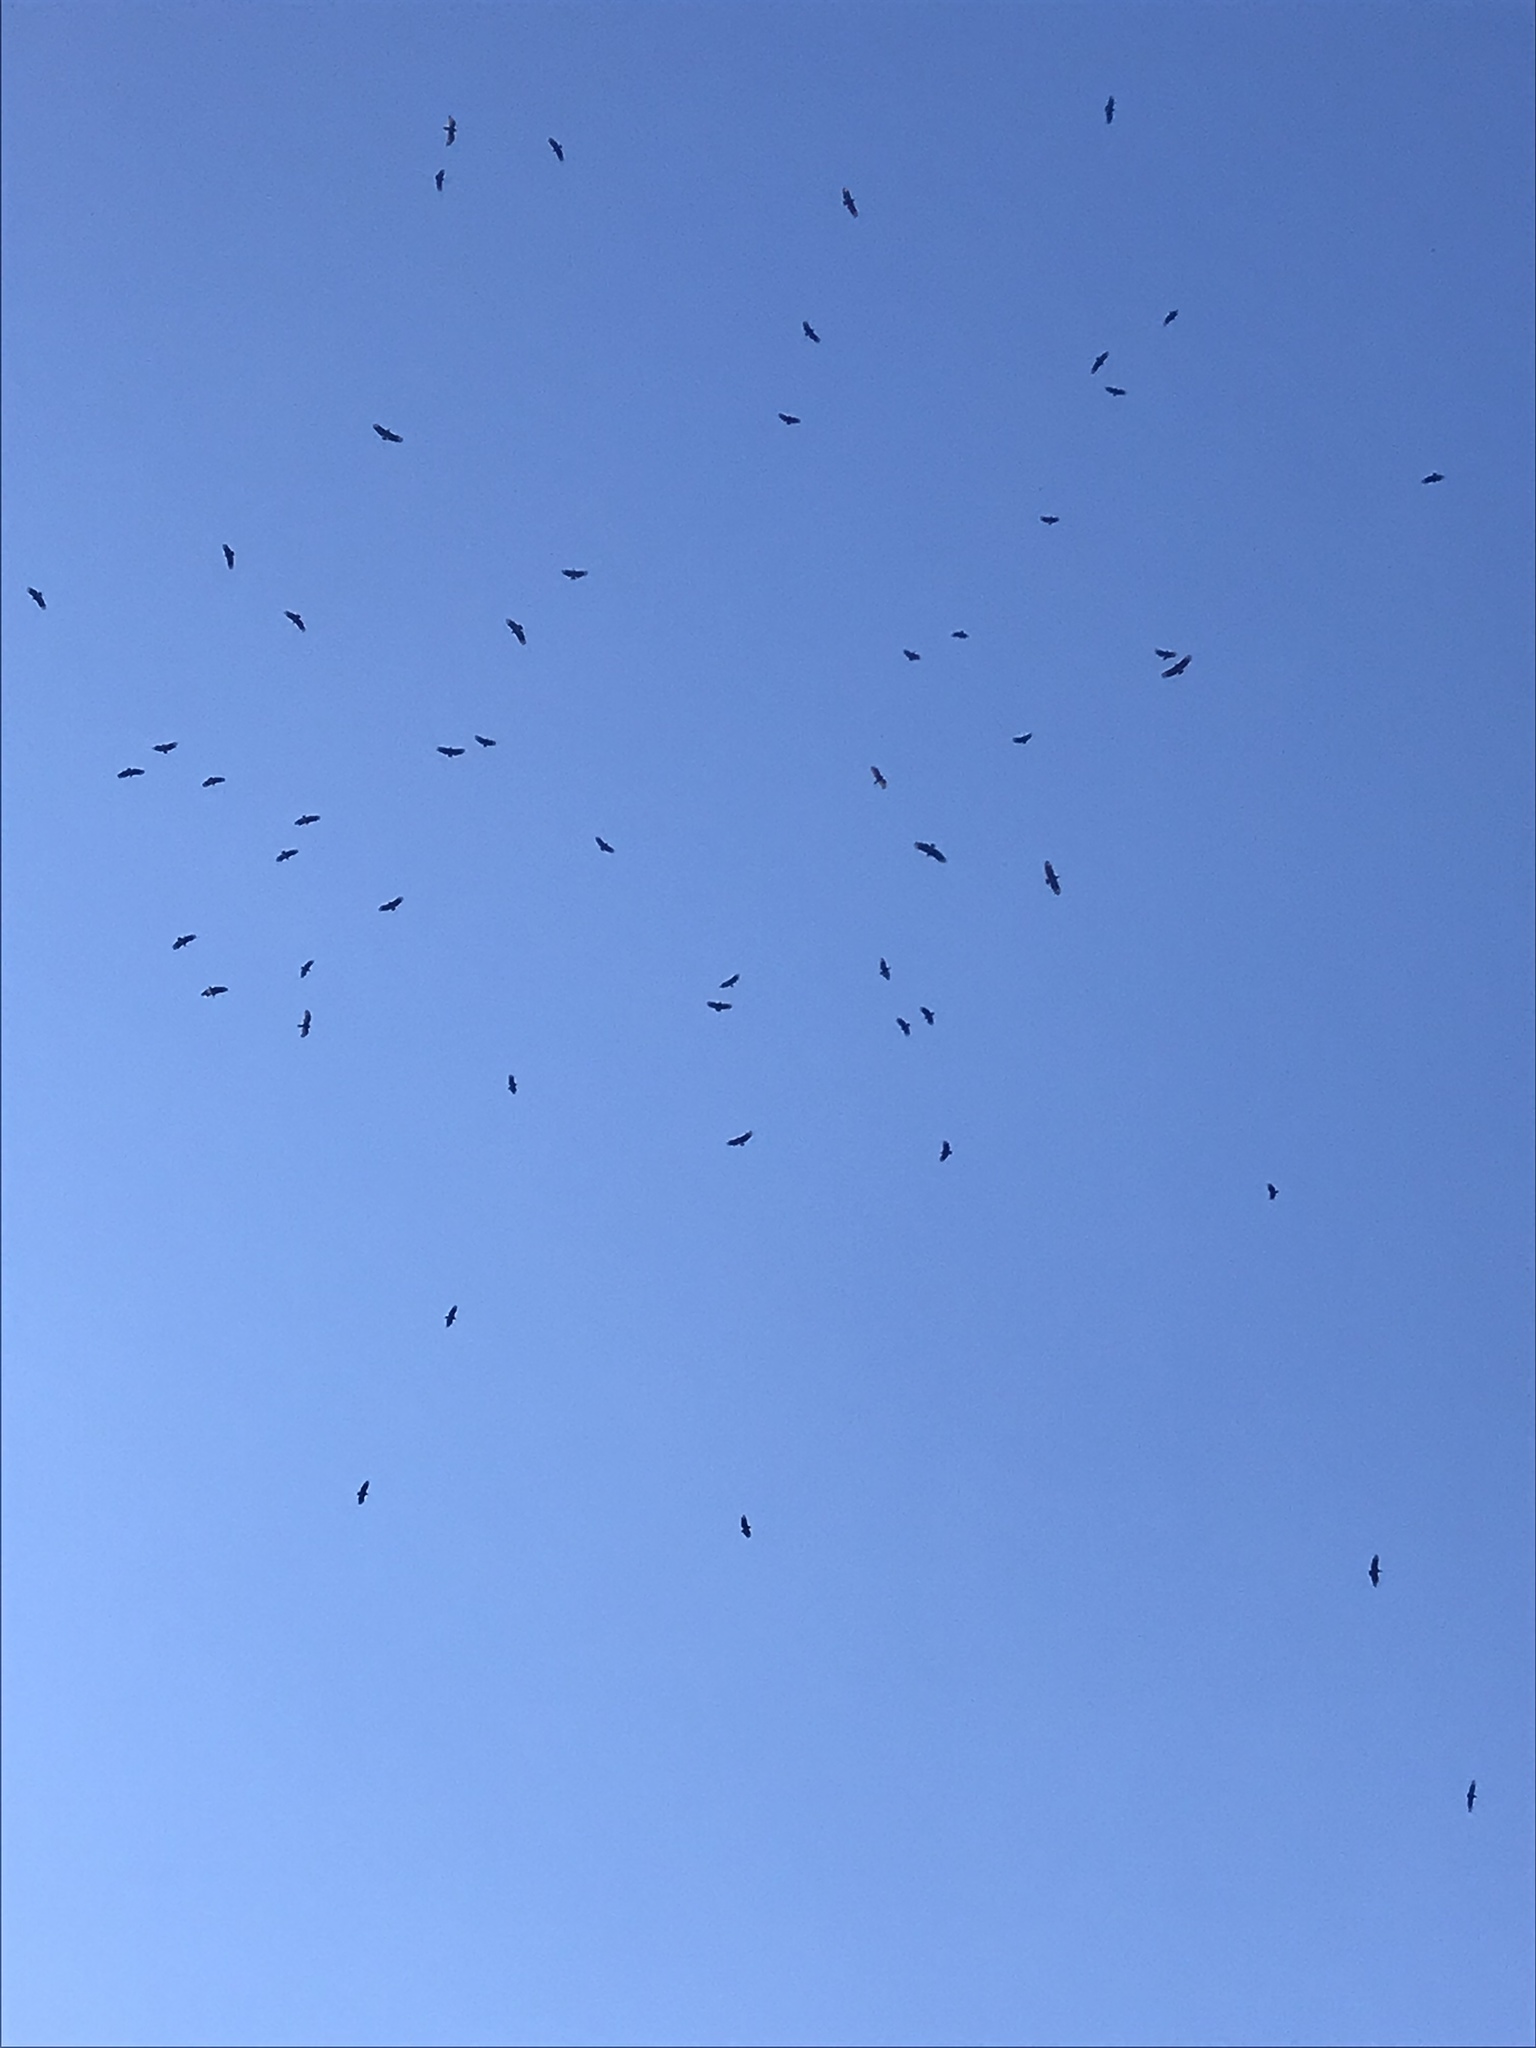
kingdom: Animalia
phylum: Chordata
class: Aves
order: Accipitriformes
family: Cathartidae
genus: Coragyps
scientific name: Coragyps atratus
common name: Black vulture
